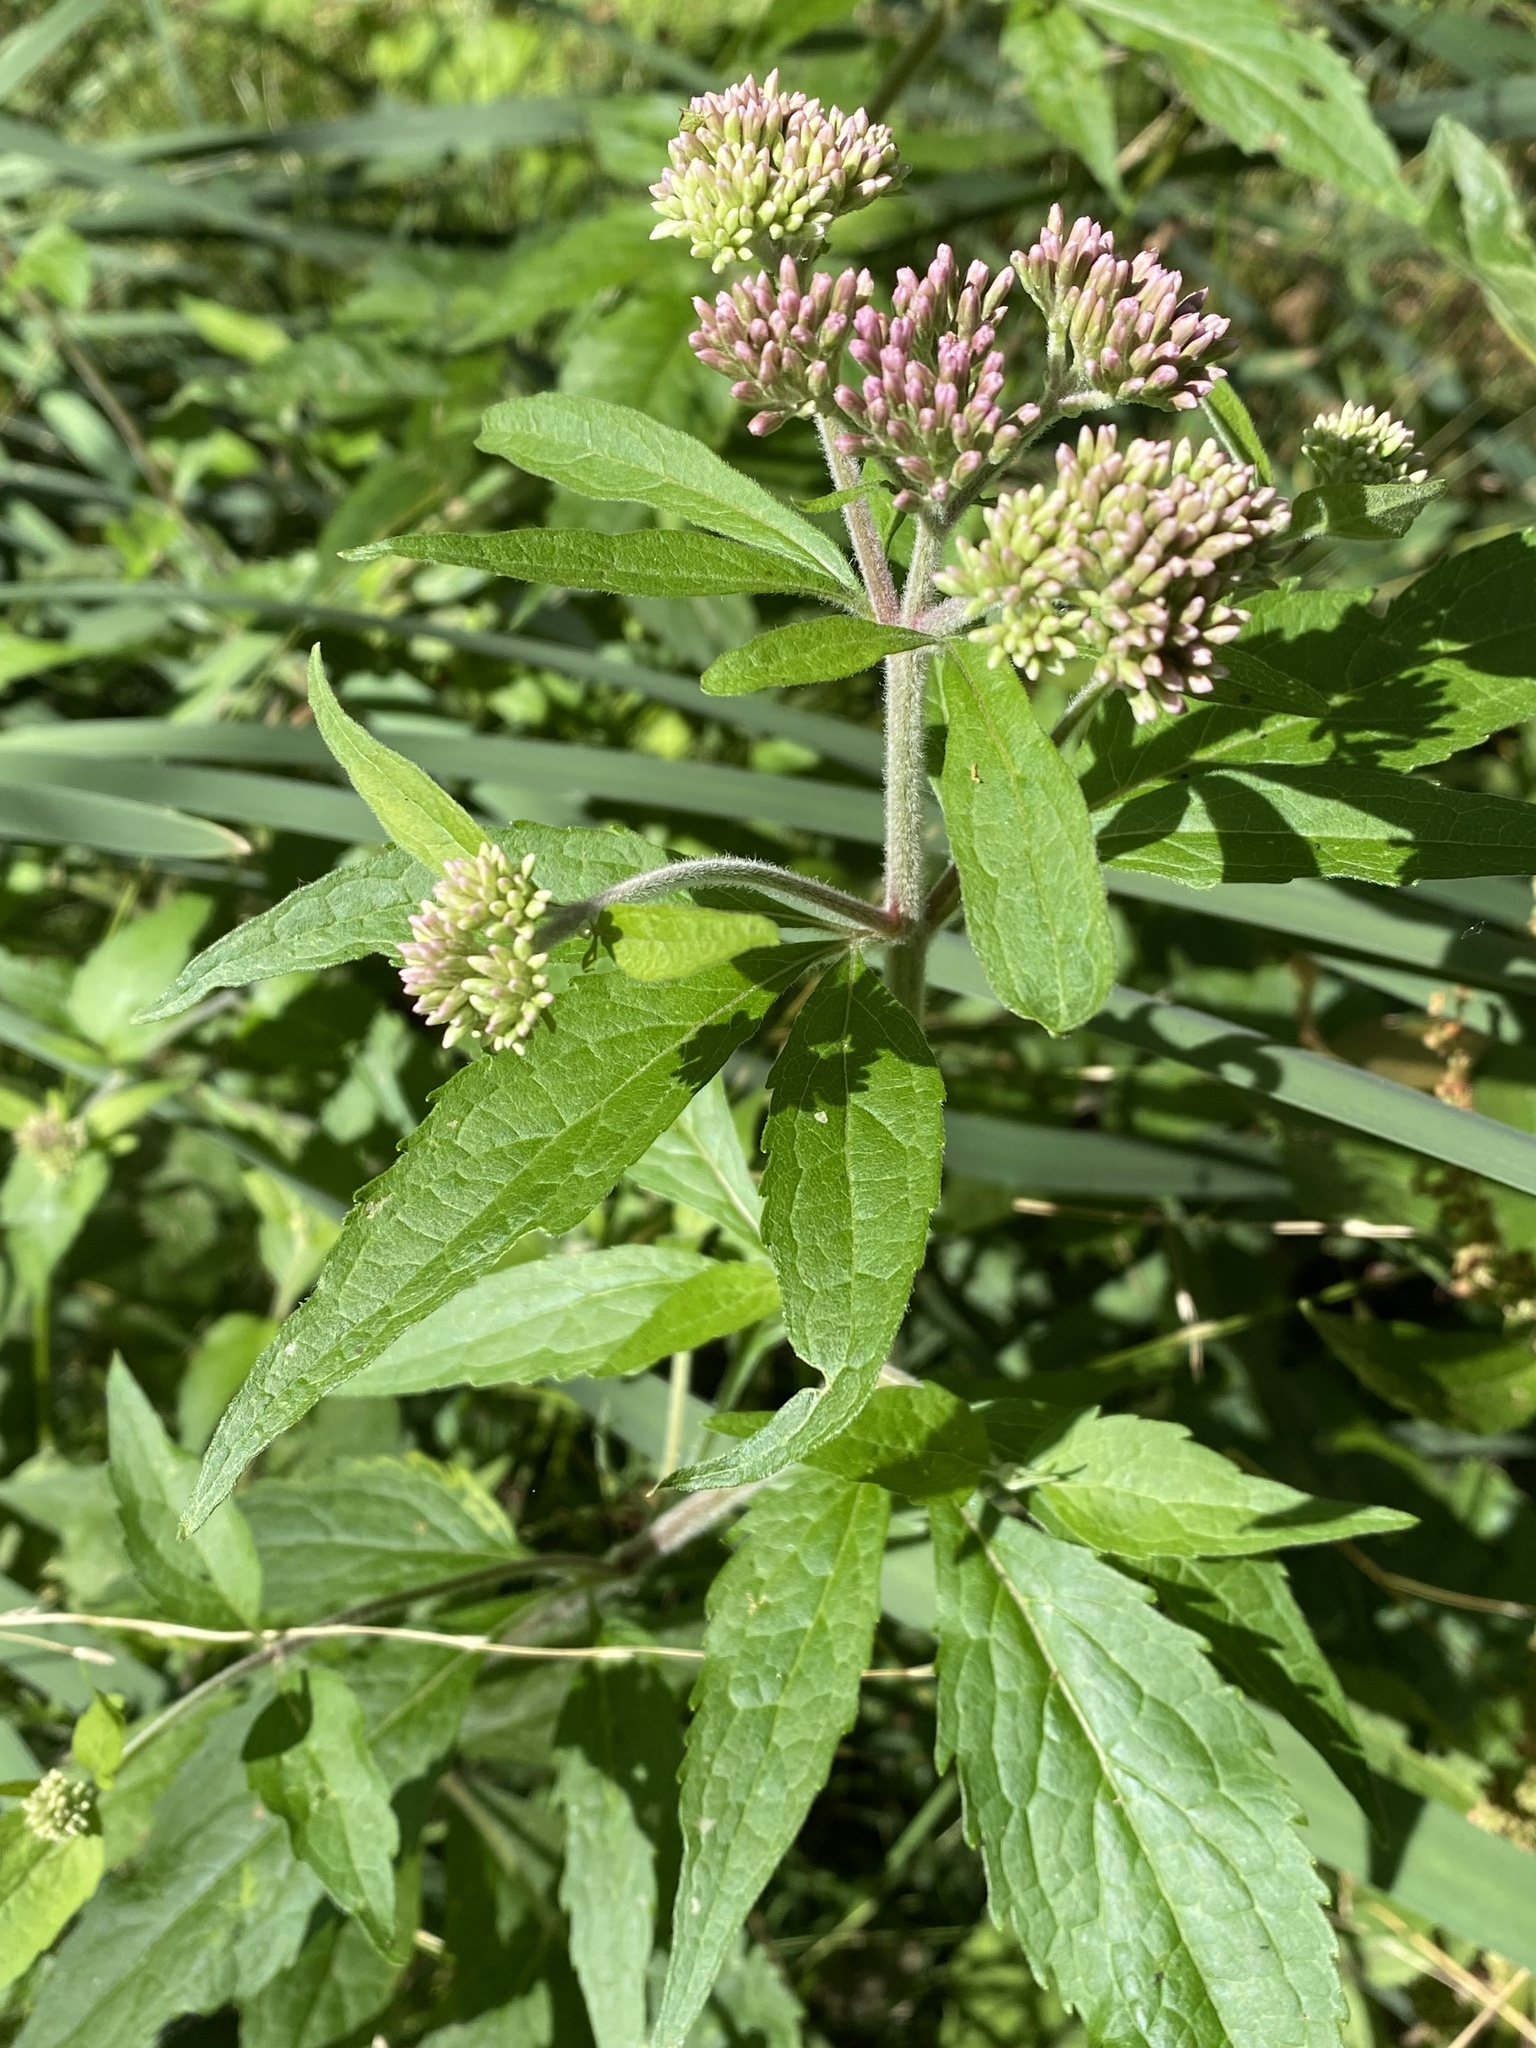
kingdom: Plantae
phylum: Tracheophyta
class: Magnoliopsida
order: Asterales
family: Asteraceae
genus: Eupatorium
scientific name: Eupatorium cannabinum
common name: Hemp-agrimony
